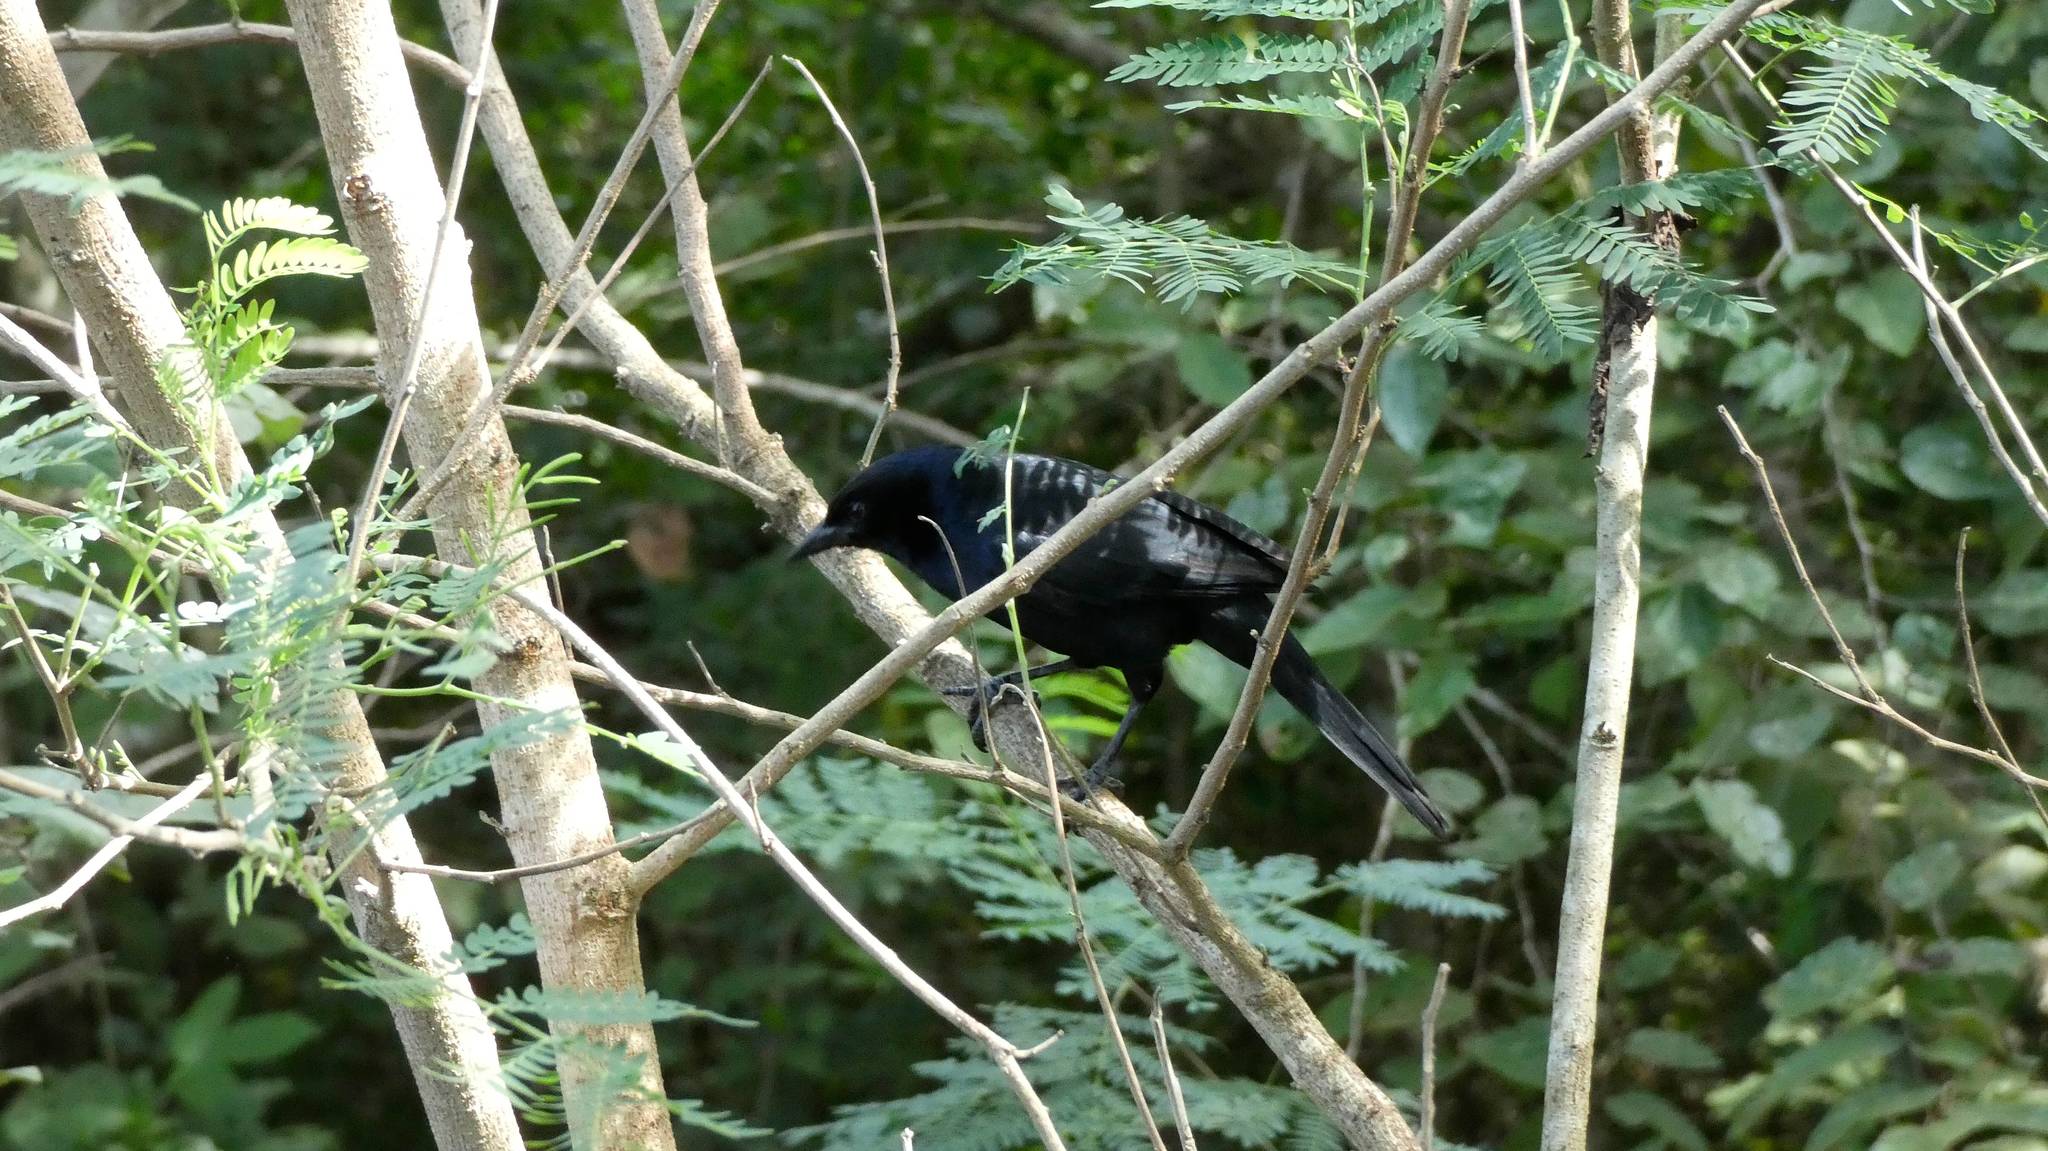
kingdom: Animalia
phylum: Chordata
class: Aves
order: Passeriformes
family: Icteridae
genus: Dives
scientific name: Dives dives
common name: Melodious blackbird
